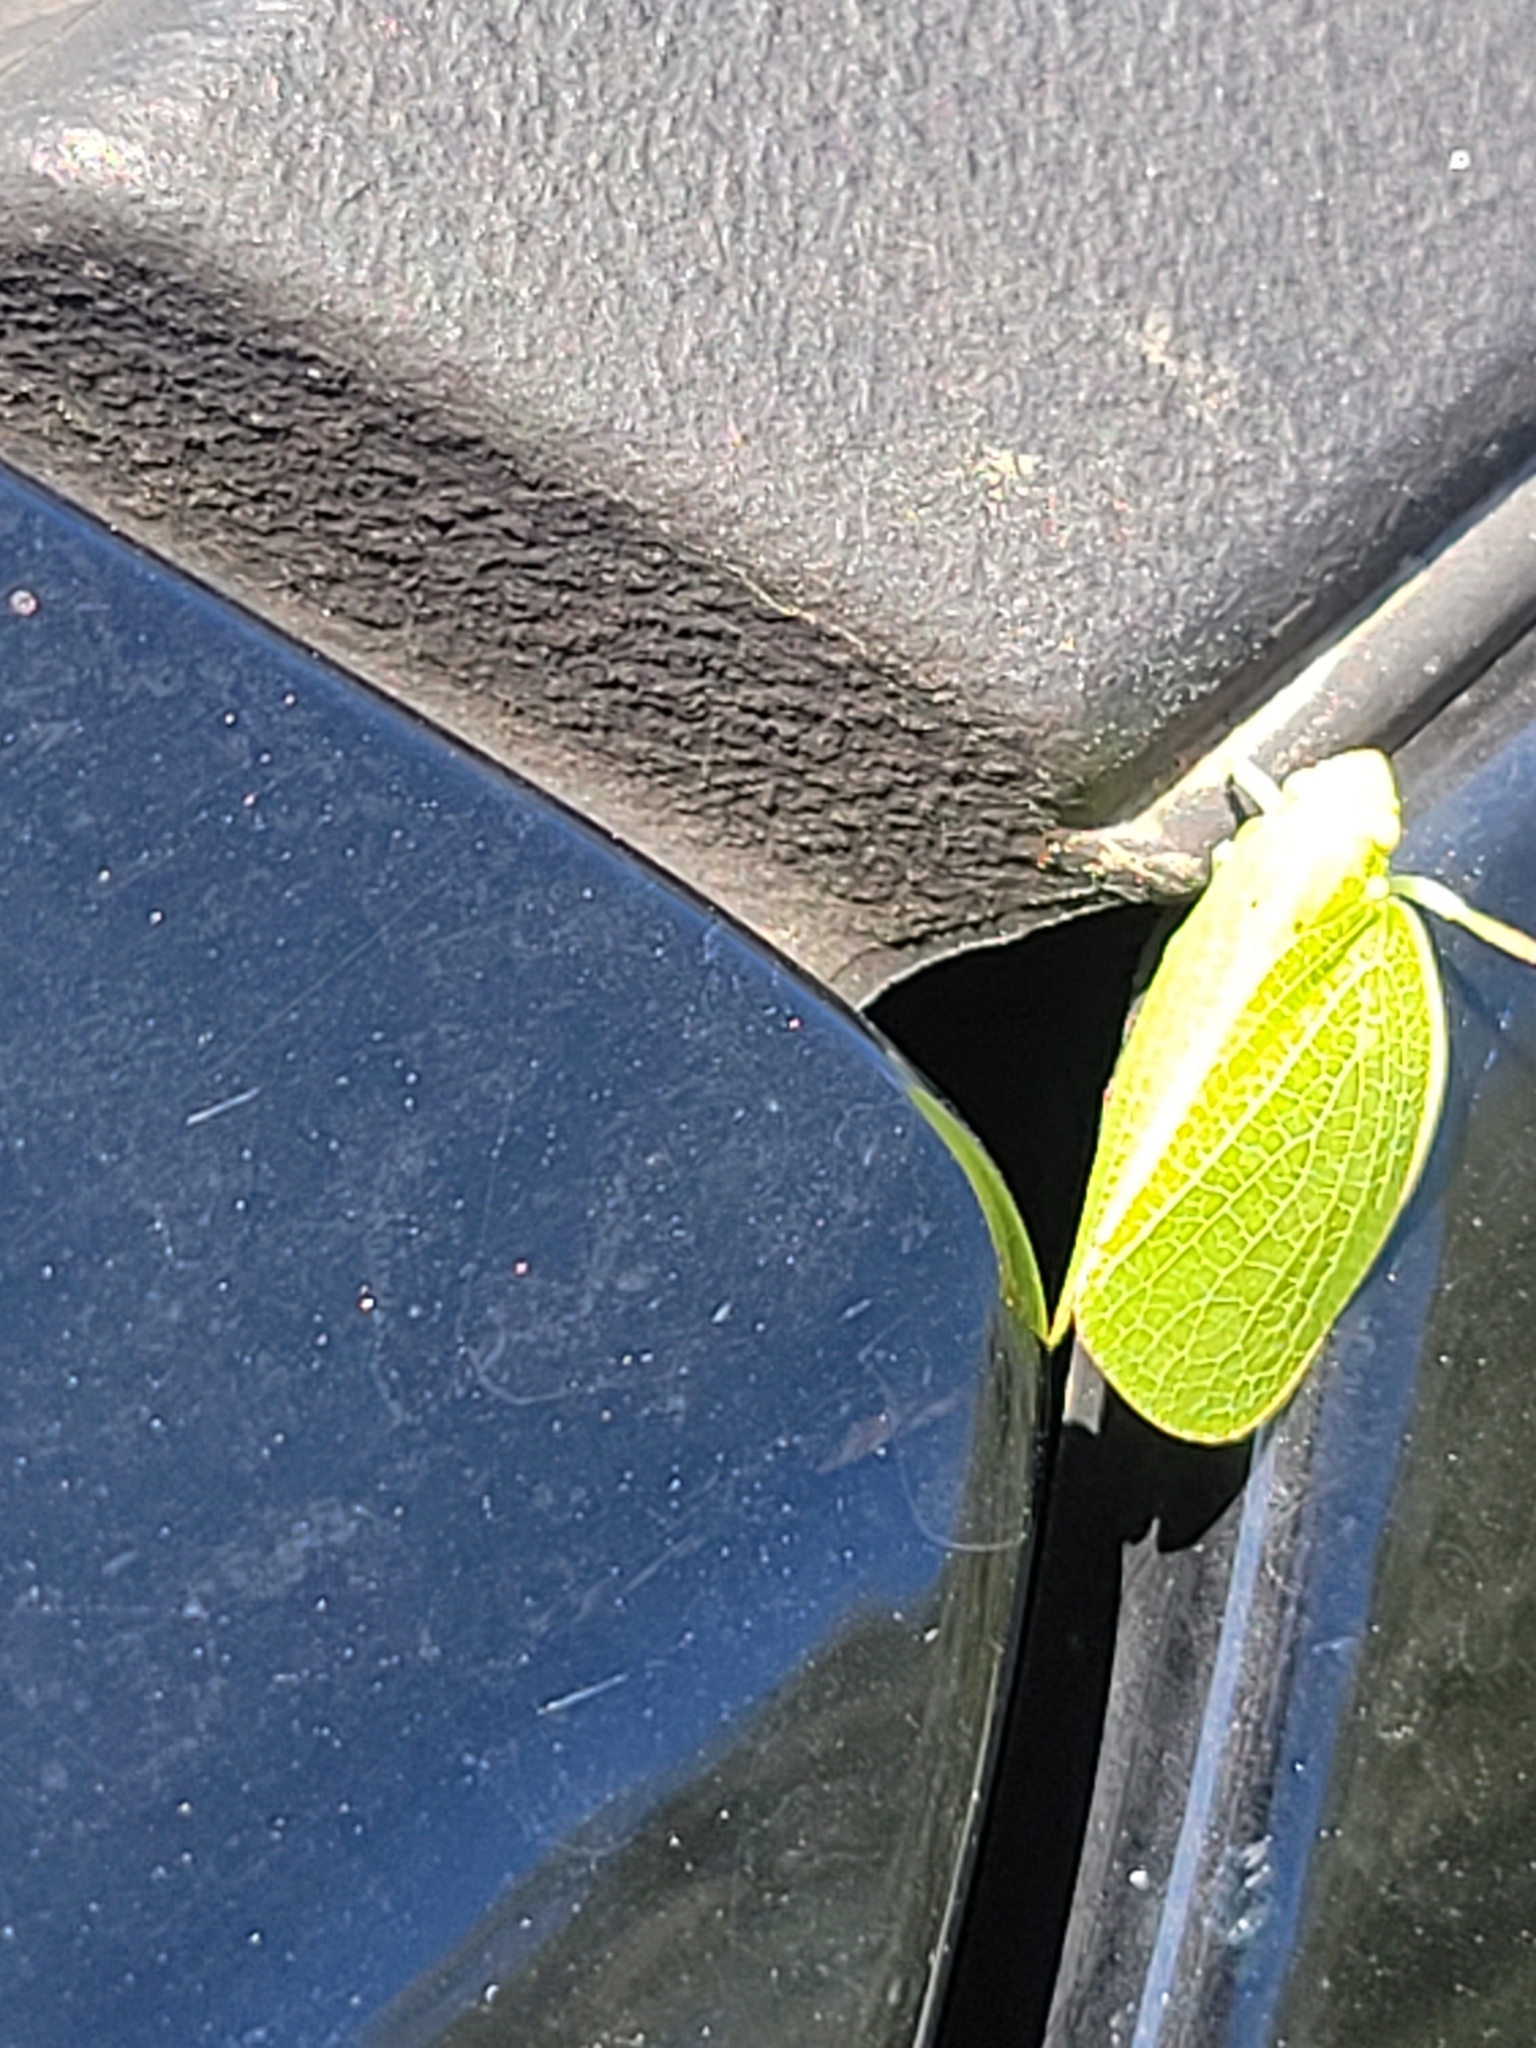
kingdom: Animalia
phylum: Arthropoda
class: Insecta
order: Hemiptera
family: Acanaloniidae
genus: Acanalonia
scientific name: Acanalonia conica
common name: Green cone-headed planthopper
